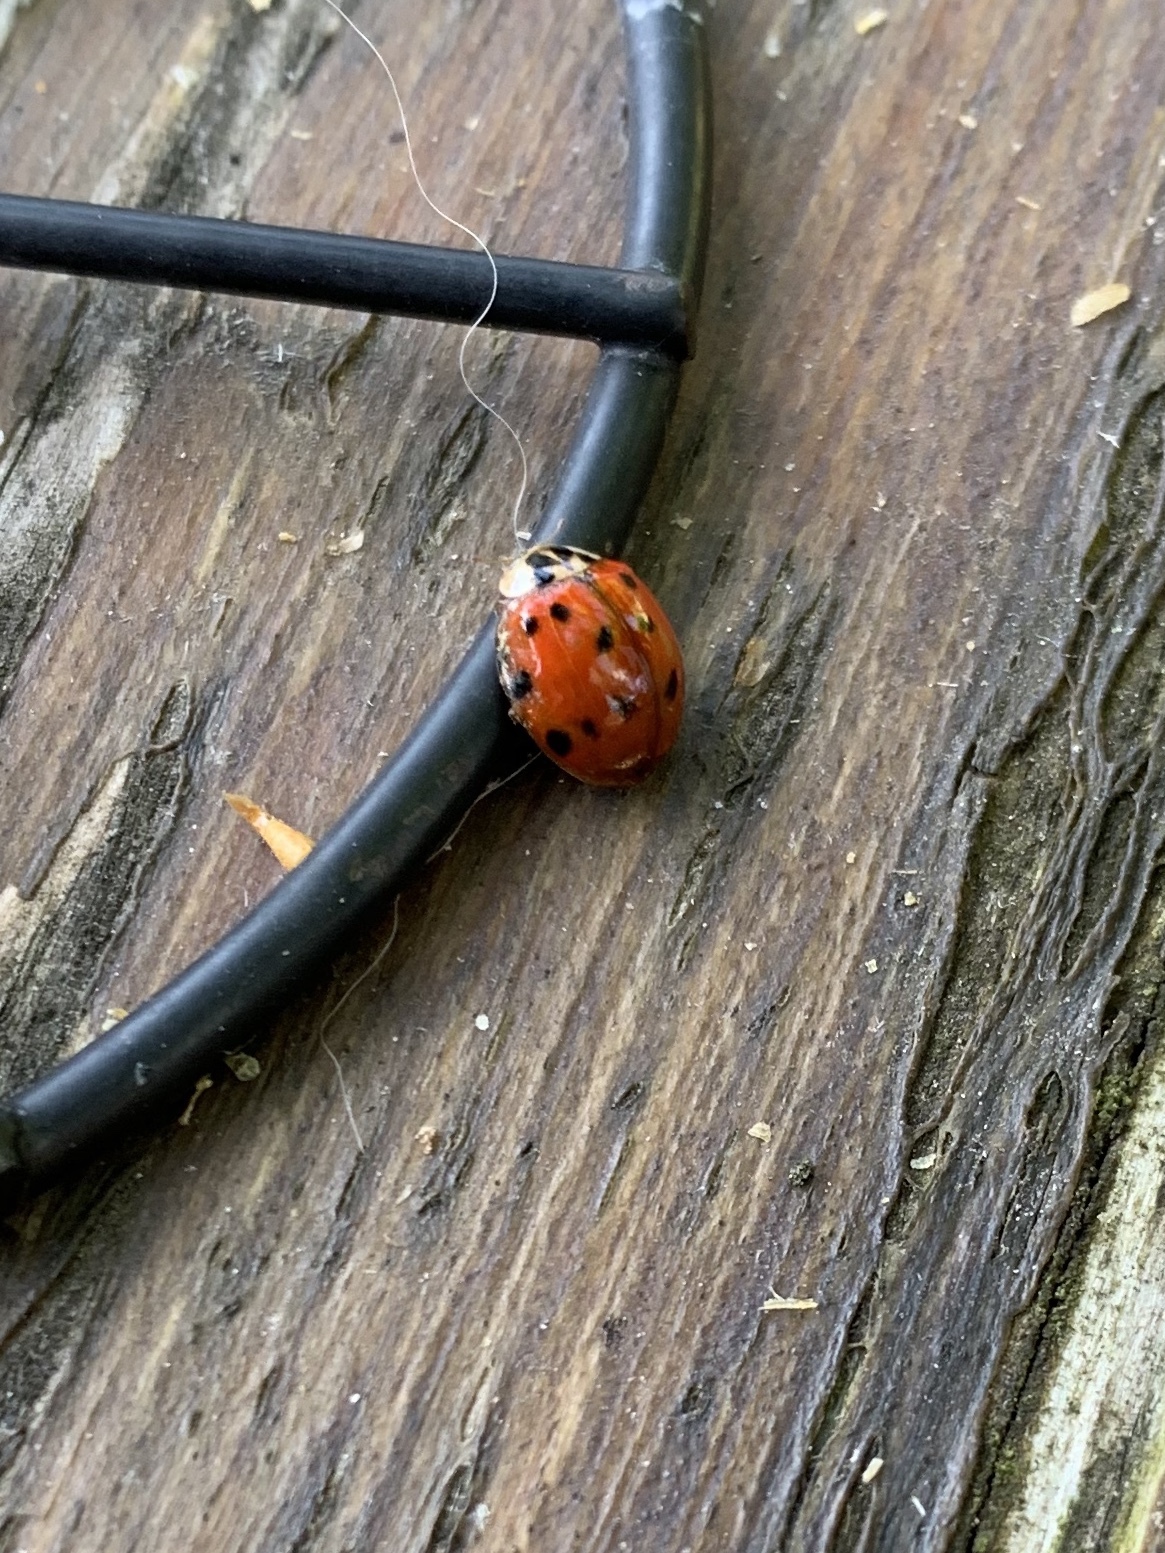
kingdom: Animalia
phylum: Arthropoda
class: Insecta
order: Coleoptera
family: Coccinellidae
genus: Harmonia
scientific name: Harmonia axyridis
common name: Harlequin ladybird
